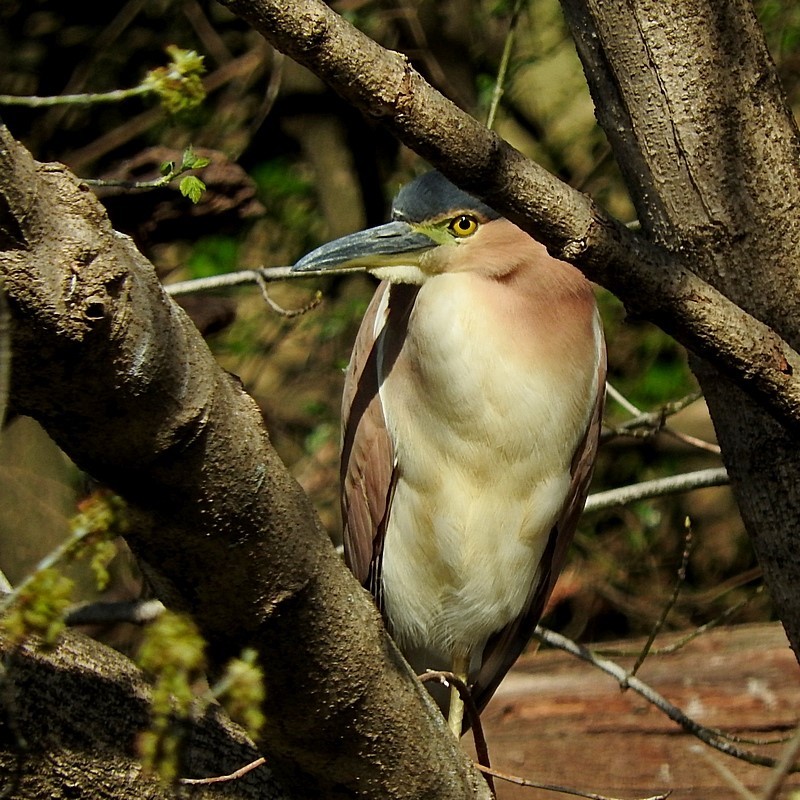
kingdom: Animalia
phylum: Chordata
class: Aves
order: Pelecaniformes
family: Ardeidae
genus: Nycticorax
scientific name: Nycticorax caledonicus
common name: Rufous night-heron
